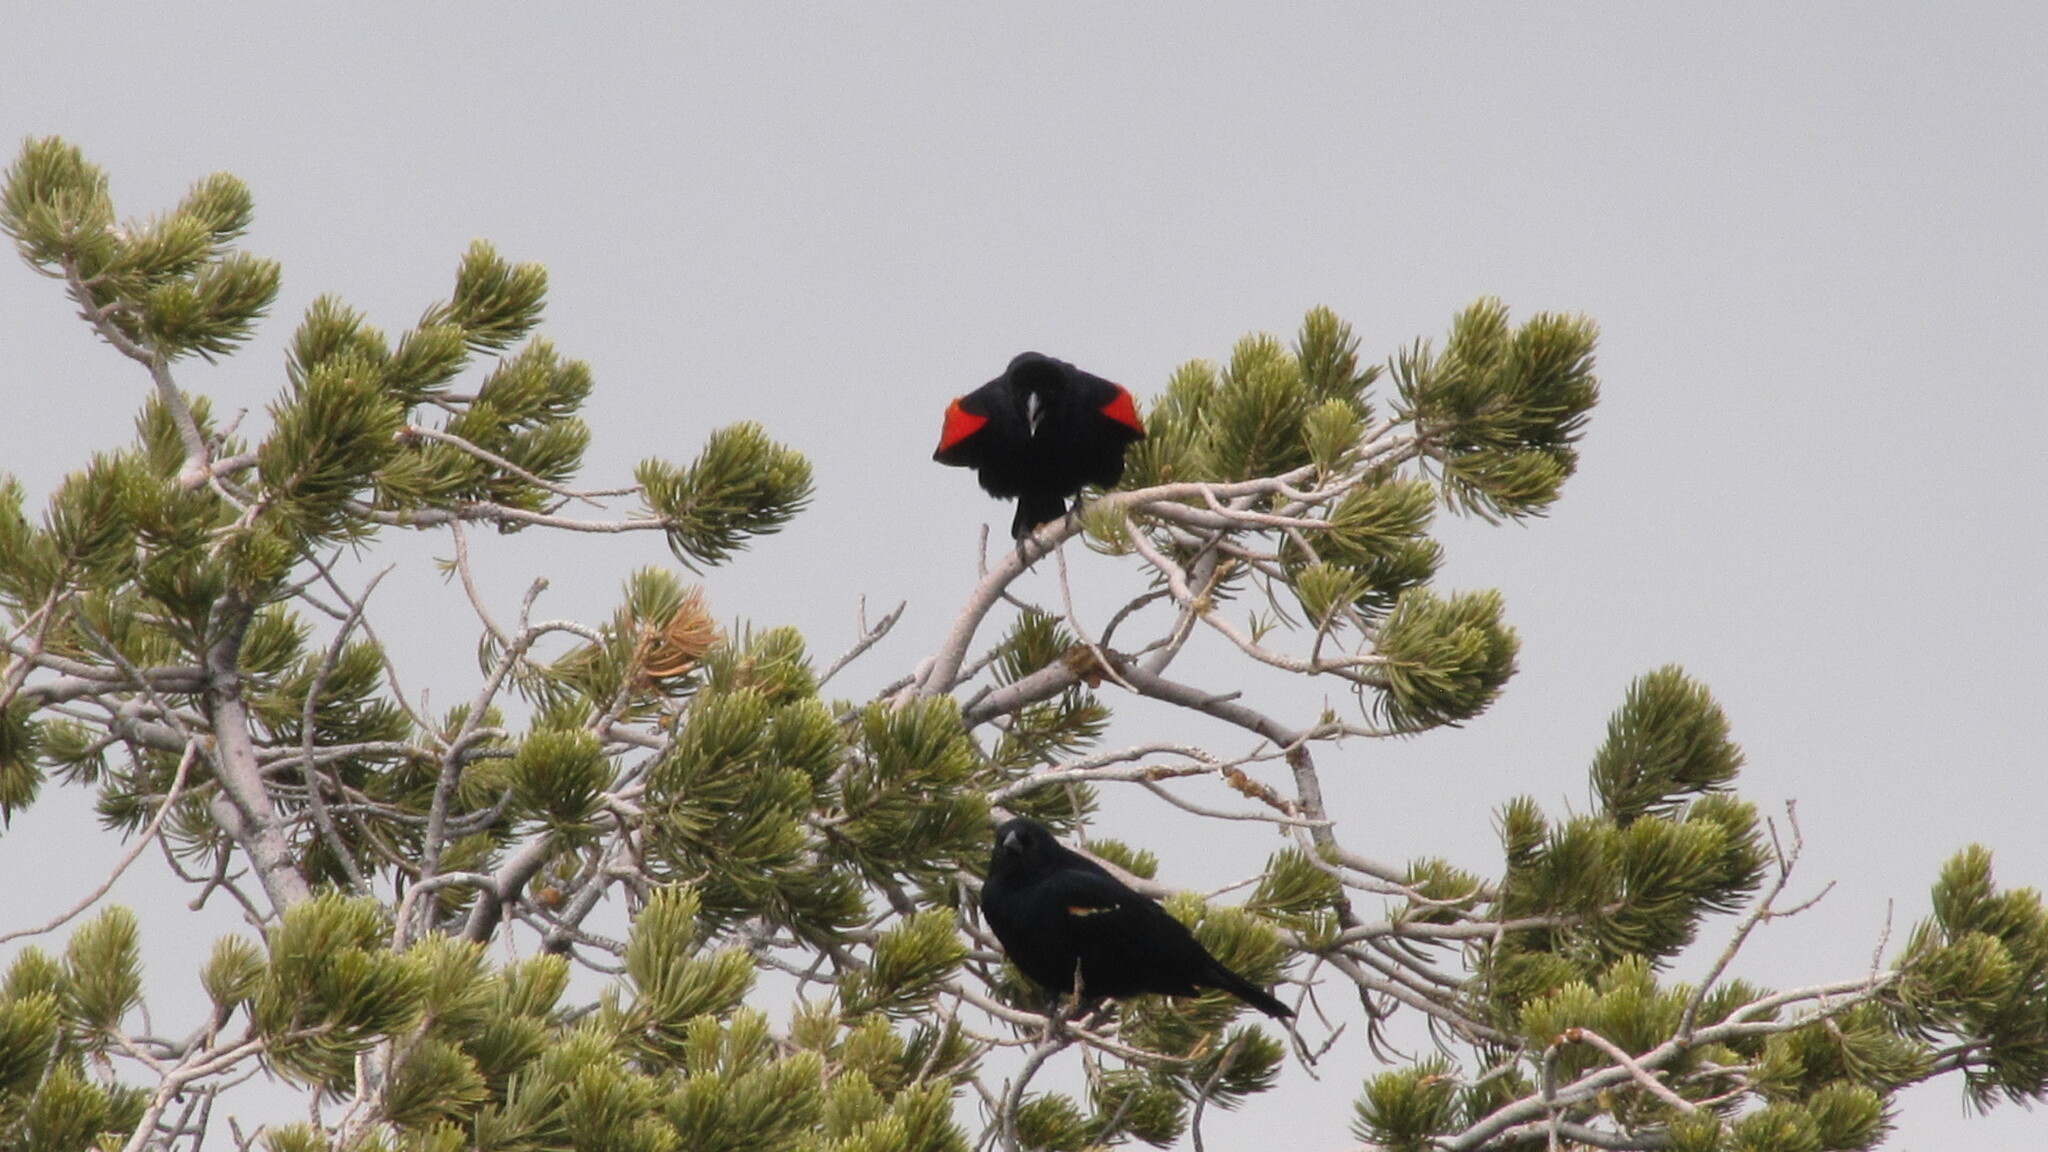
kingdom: Animalia
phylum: Chordata
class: Aves
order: Passeriformes
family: Icteridae
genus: Agelaius
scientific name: Agelaius phoeniceus
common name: Red-winged blackbird
